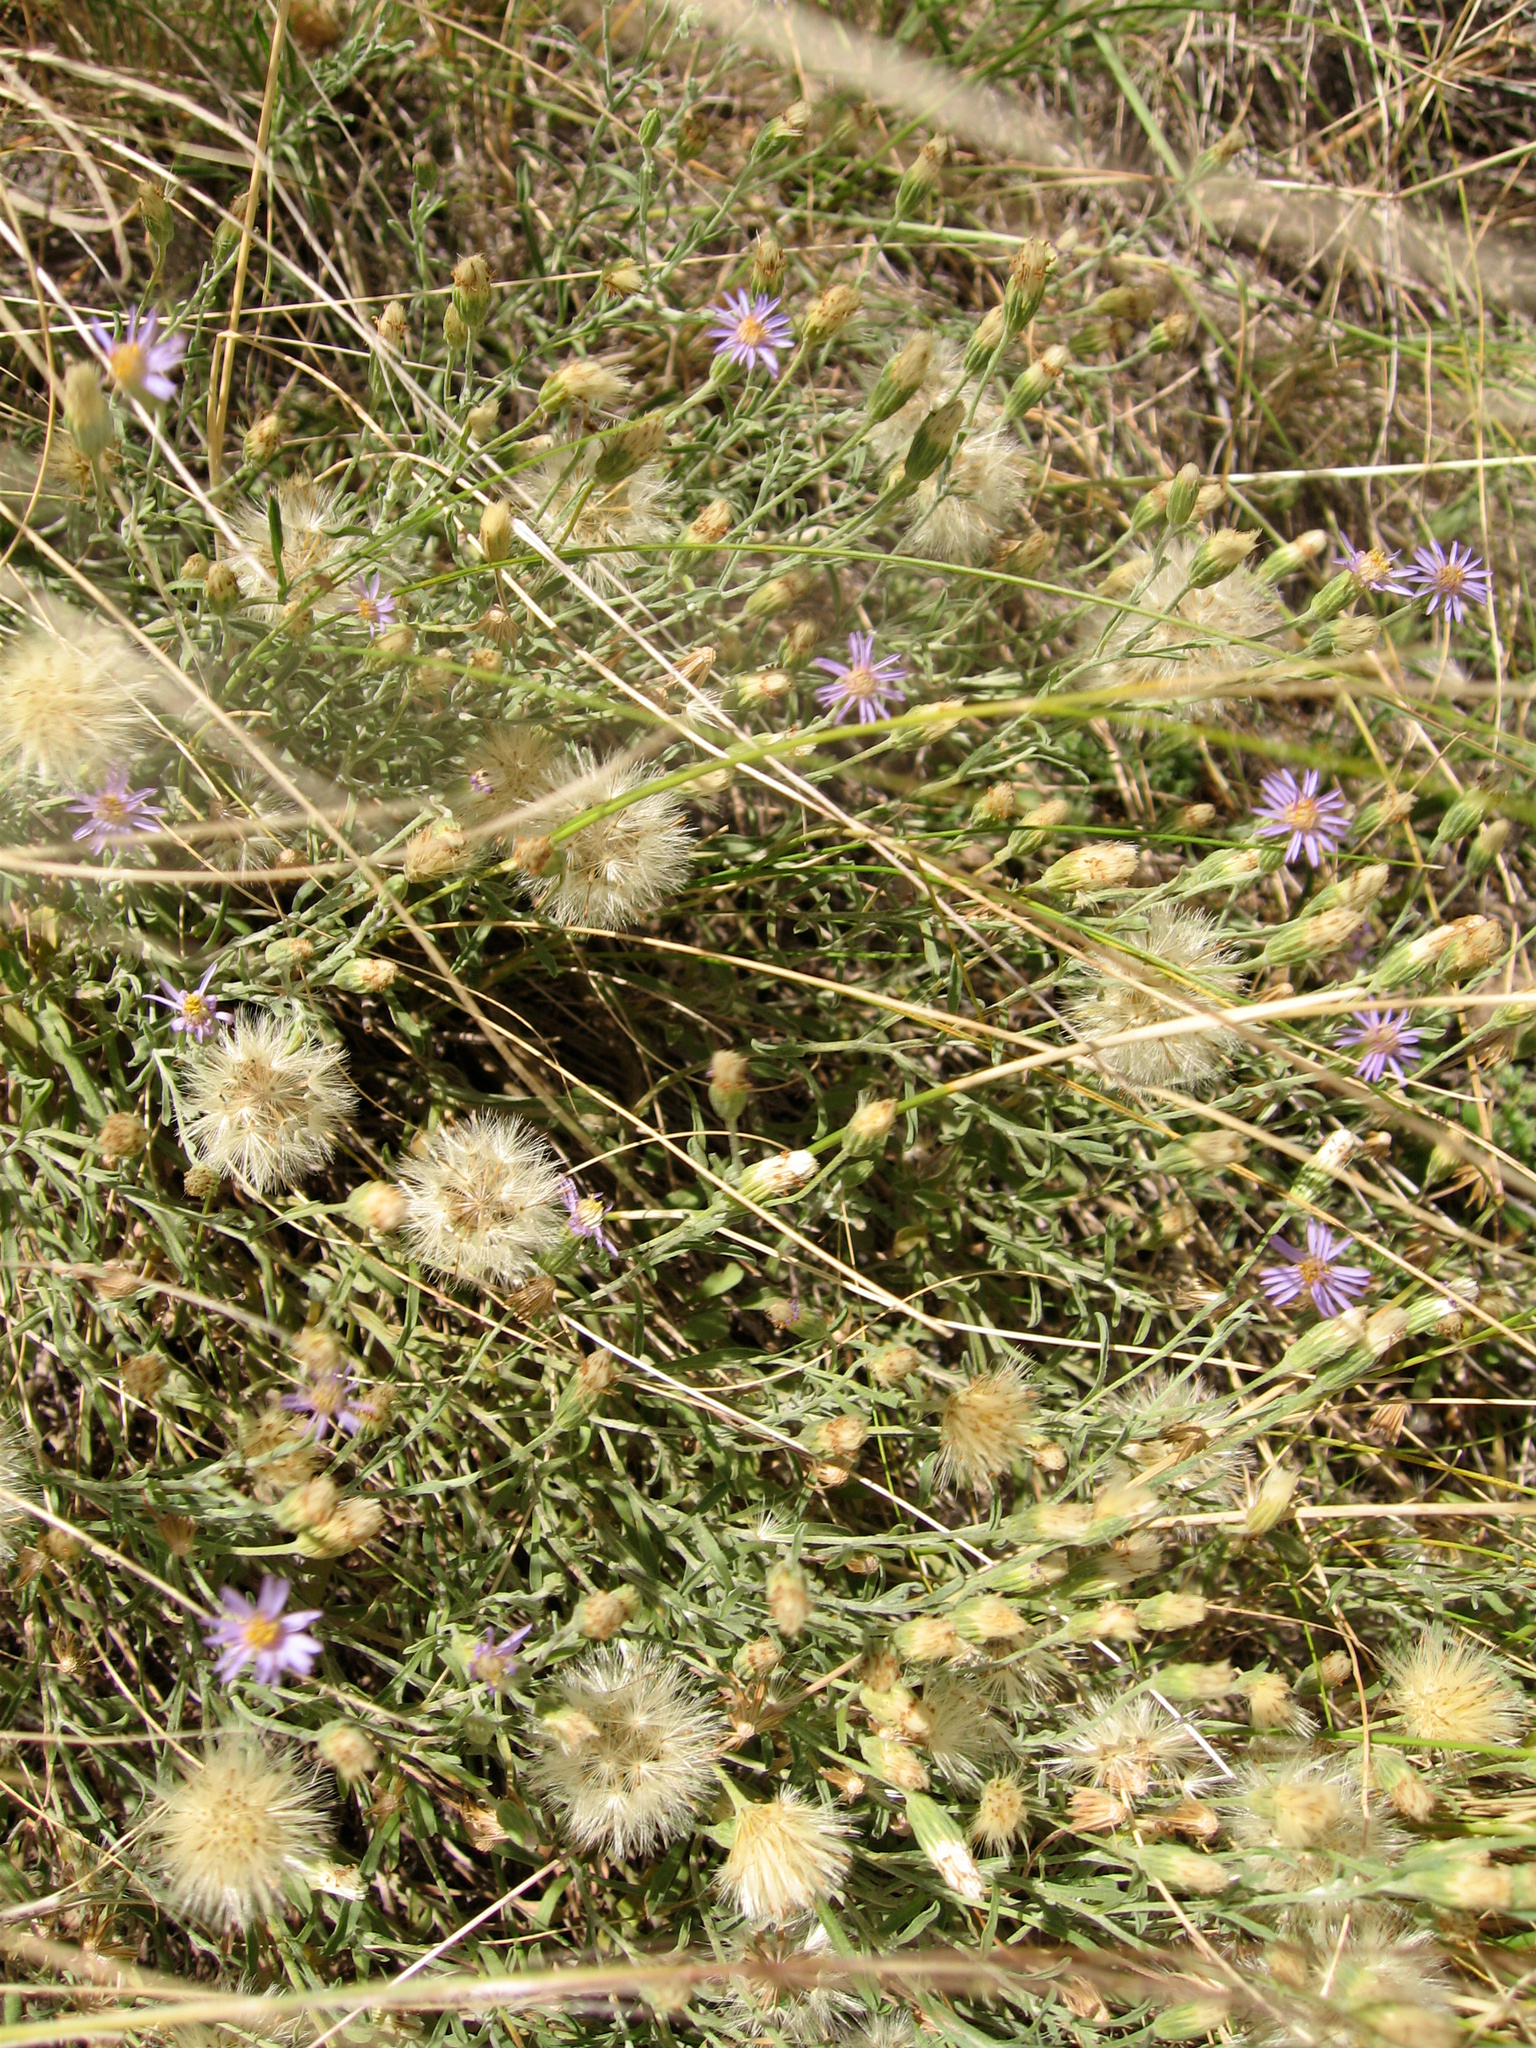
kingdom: Plantae
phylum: Tracheophyta
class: Magnoliopsida
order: Asterales
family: Asteraceae
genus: Vittadinia
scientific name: Vittadinia gracilis
